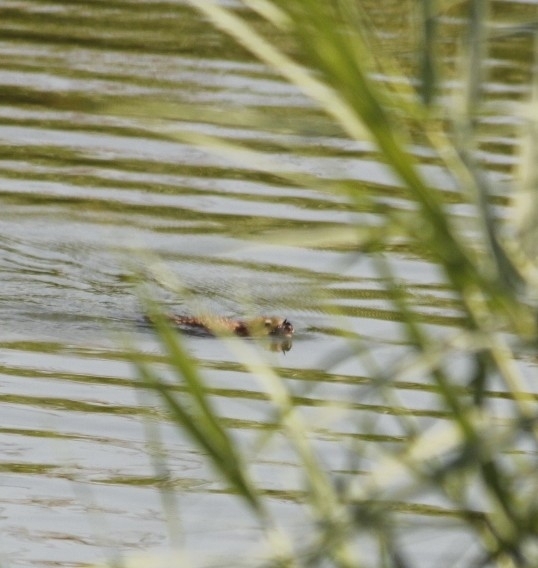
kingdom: Animalia
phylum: Chordata
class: Mammalia
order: Rodentia
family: Cricetidae
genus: Ondatra
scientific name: Ondatra zibethicus
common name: Muskrat
